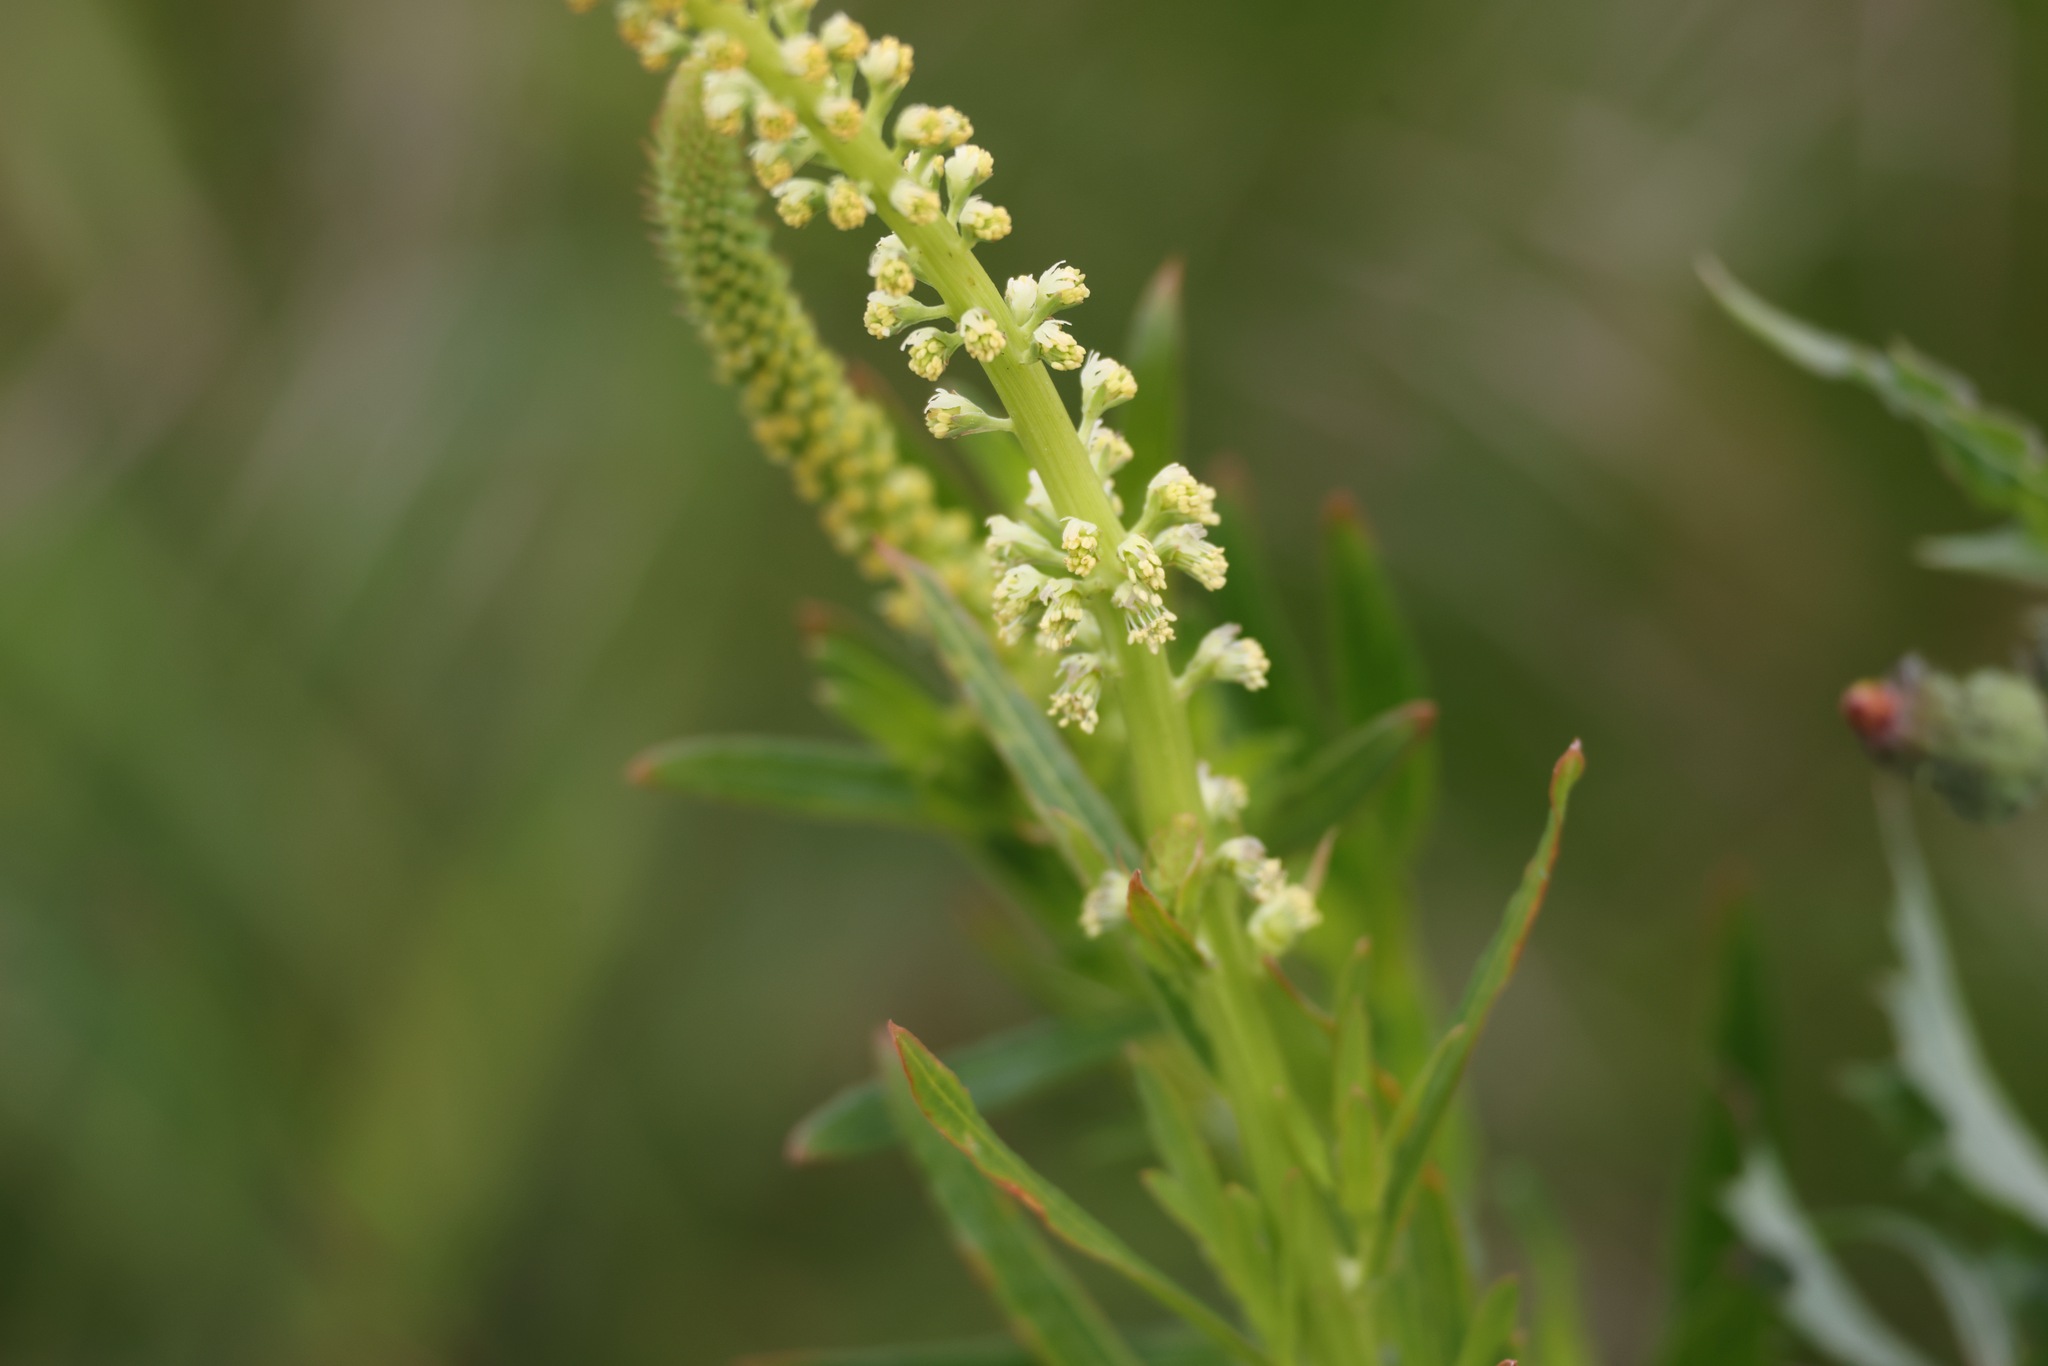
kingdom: Plantae
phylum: Tracheophyta
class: Magnoliopsida
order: Brassicales
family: Resedaceae
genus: Reseda
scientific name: Reseda luteola
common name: Weld
